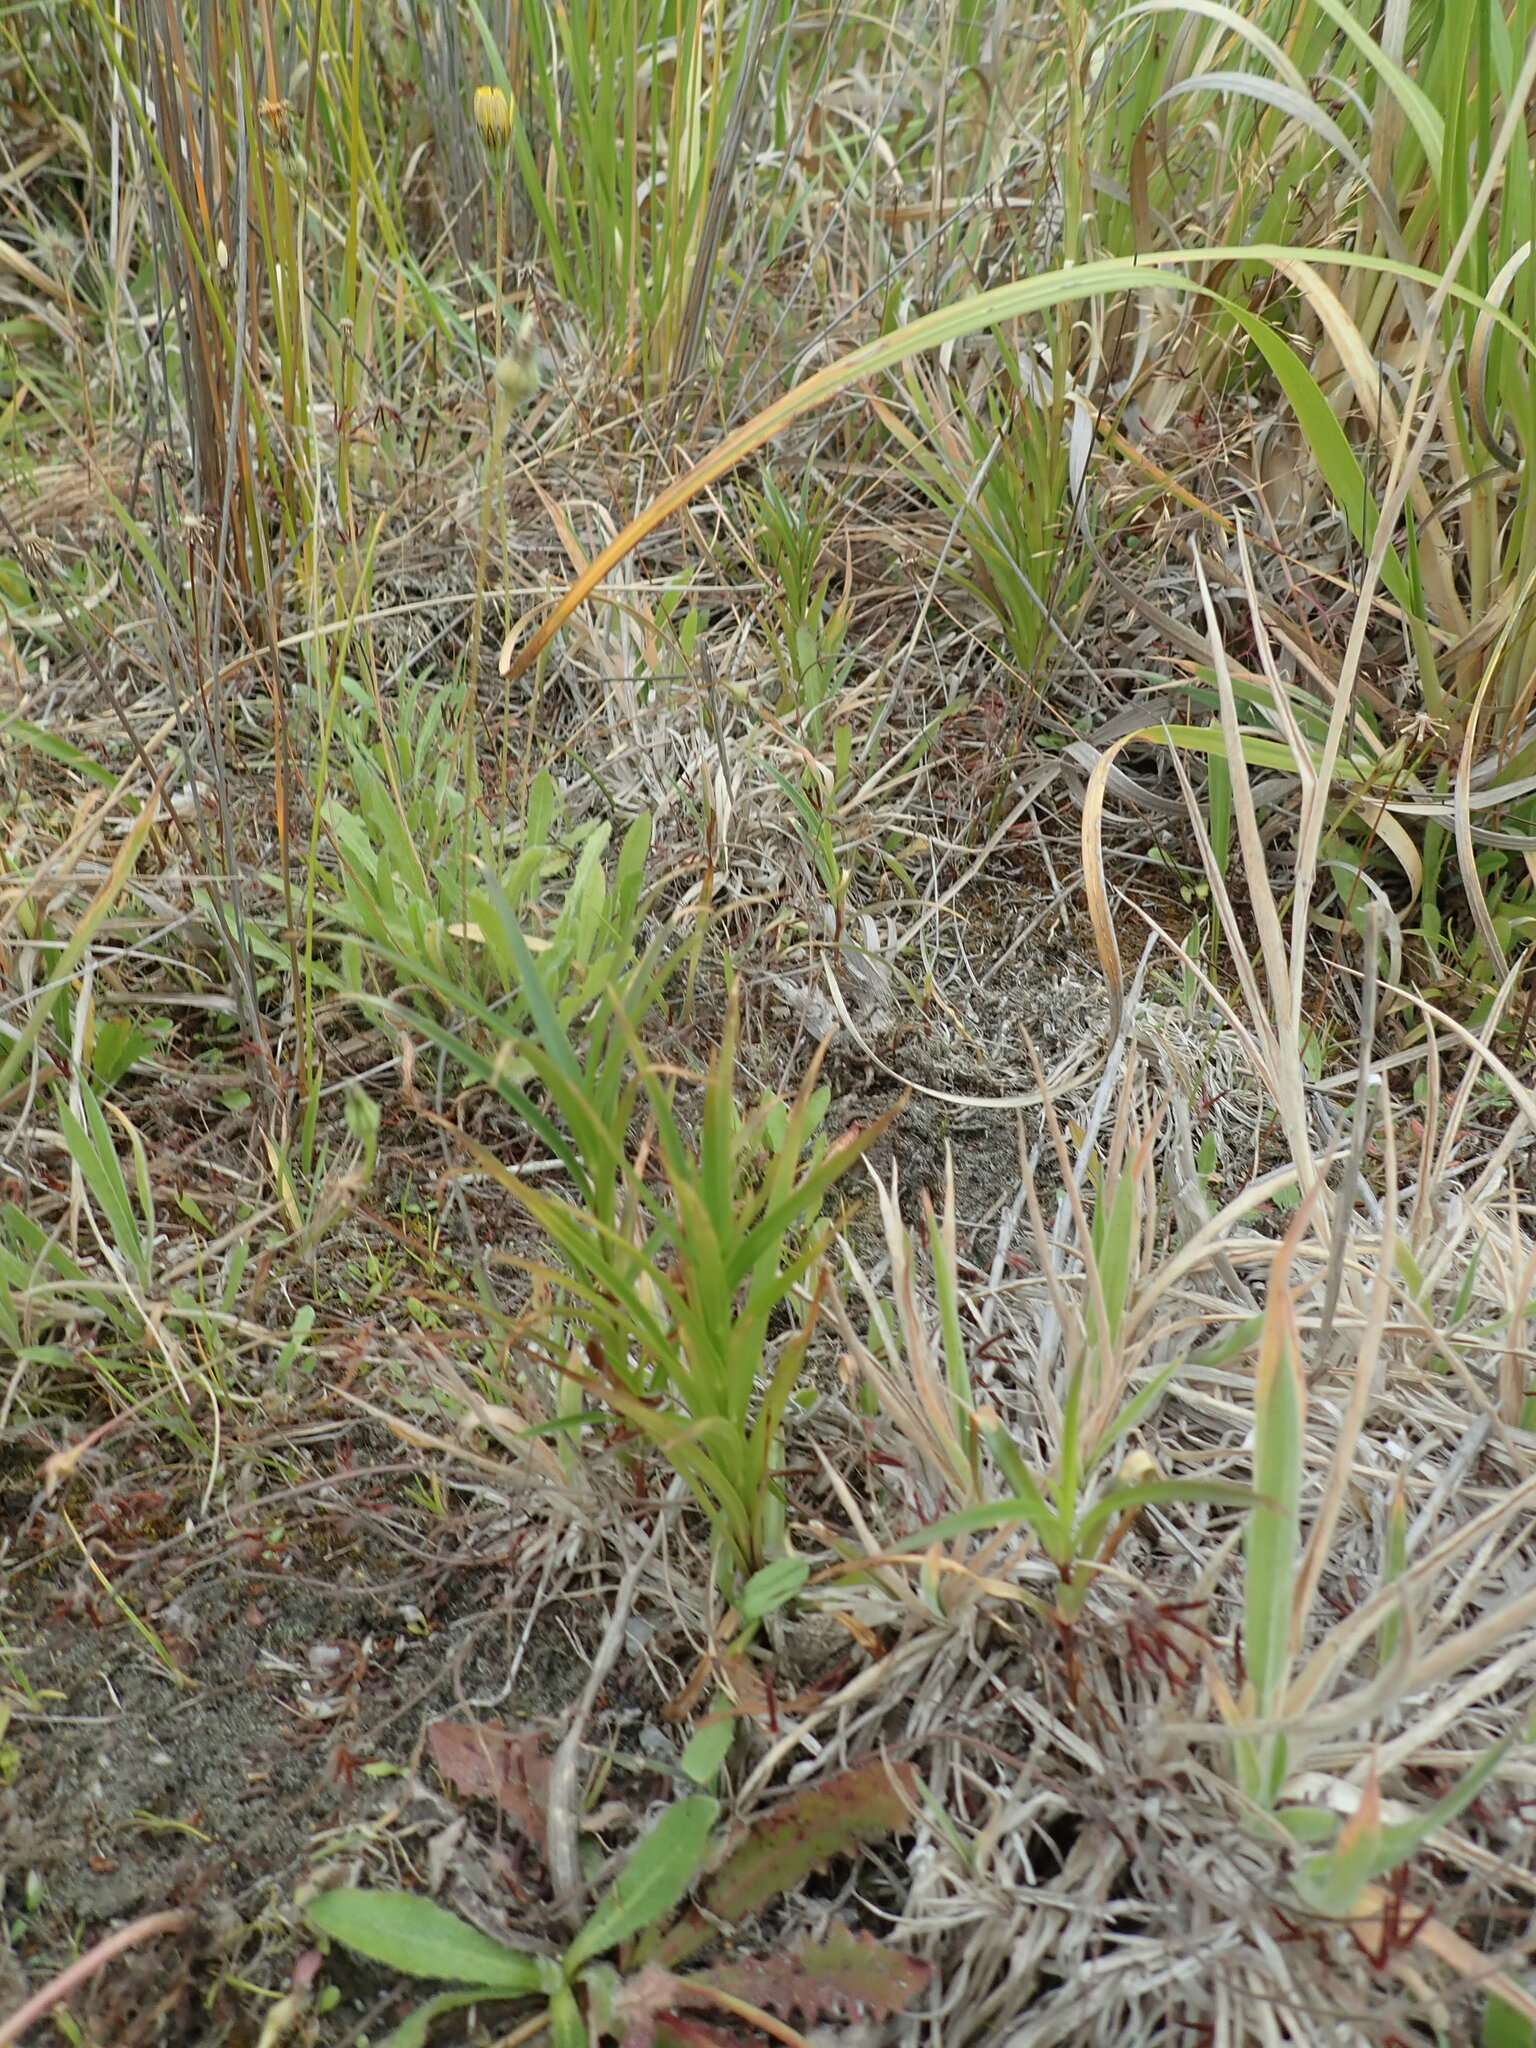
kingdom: Plantae
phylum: Tracheophyta
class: Liliopsida
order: Liliales
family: Liliaceae
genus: Lilium
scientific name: Lilium formosanum
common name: Formosa lily
